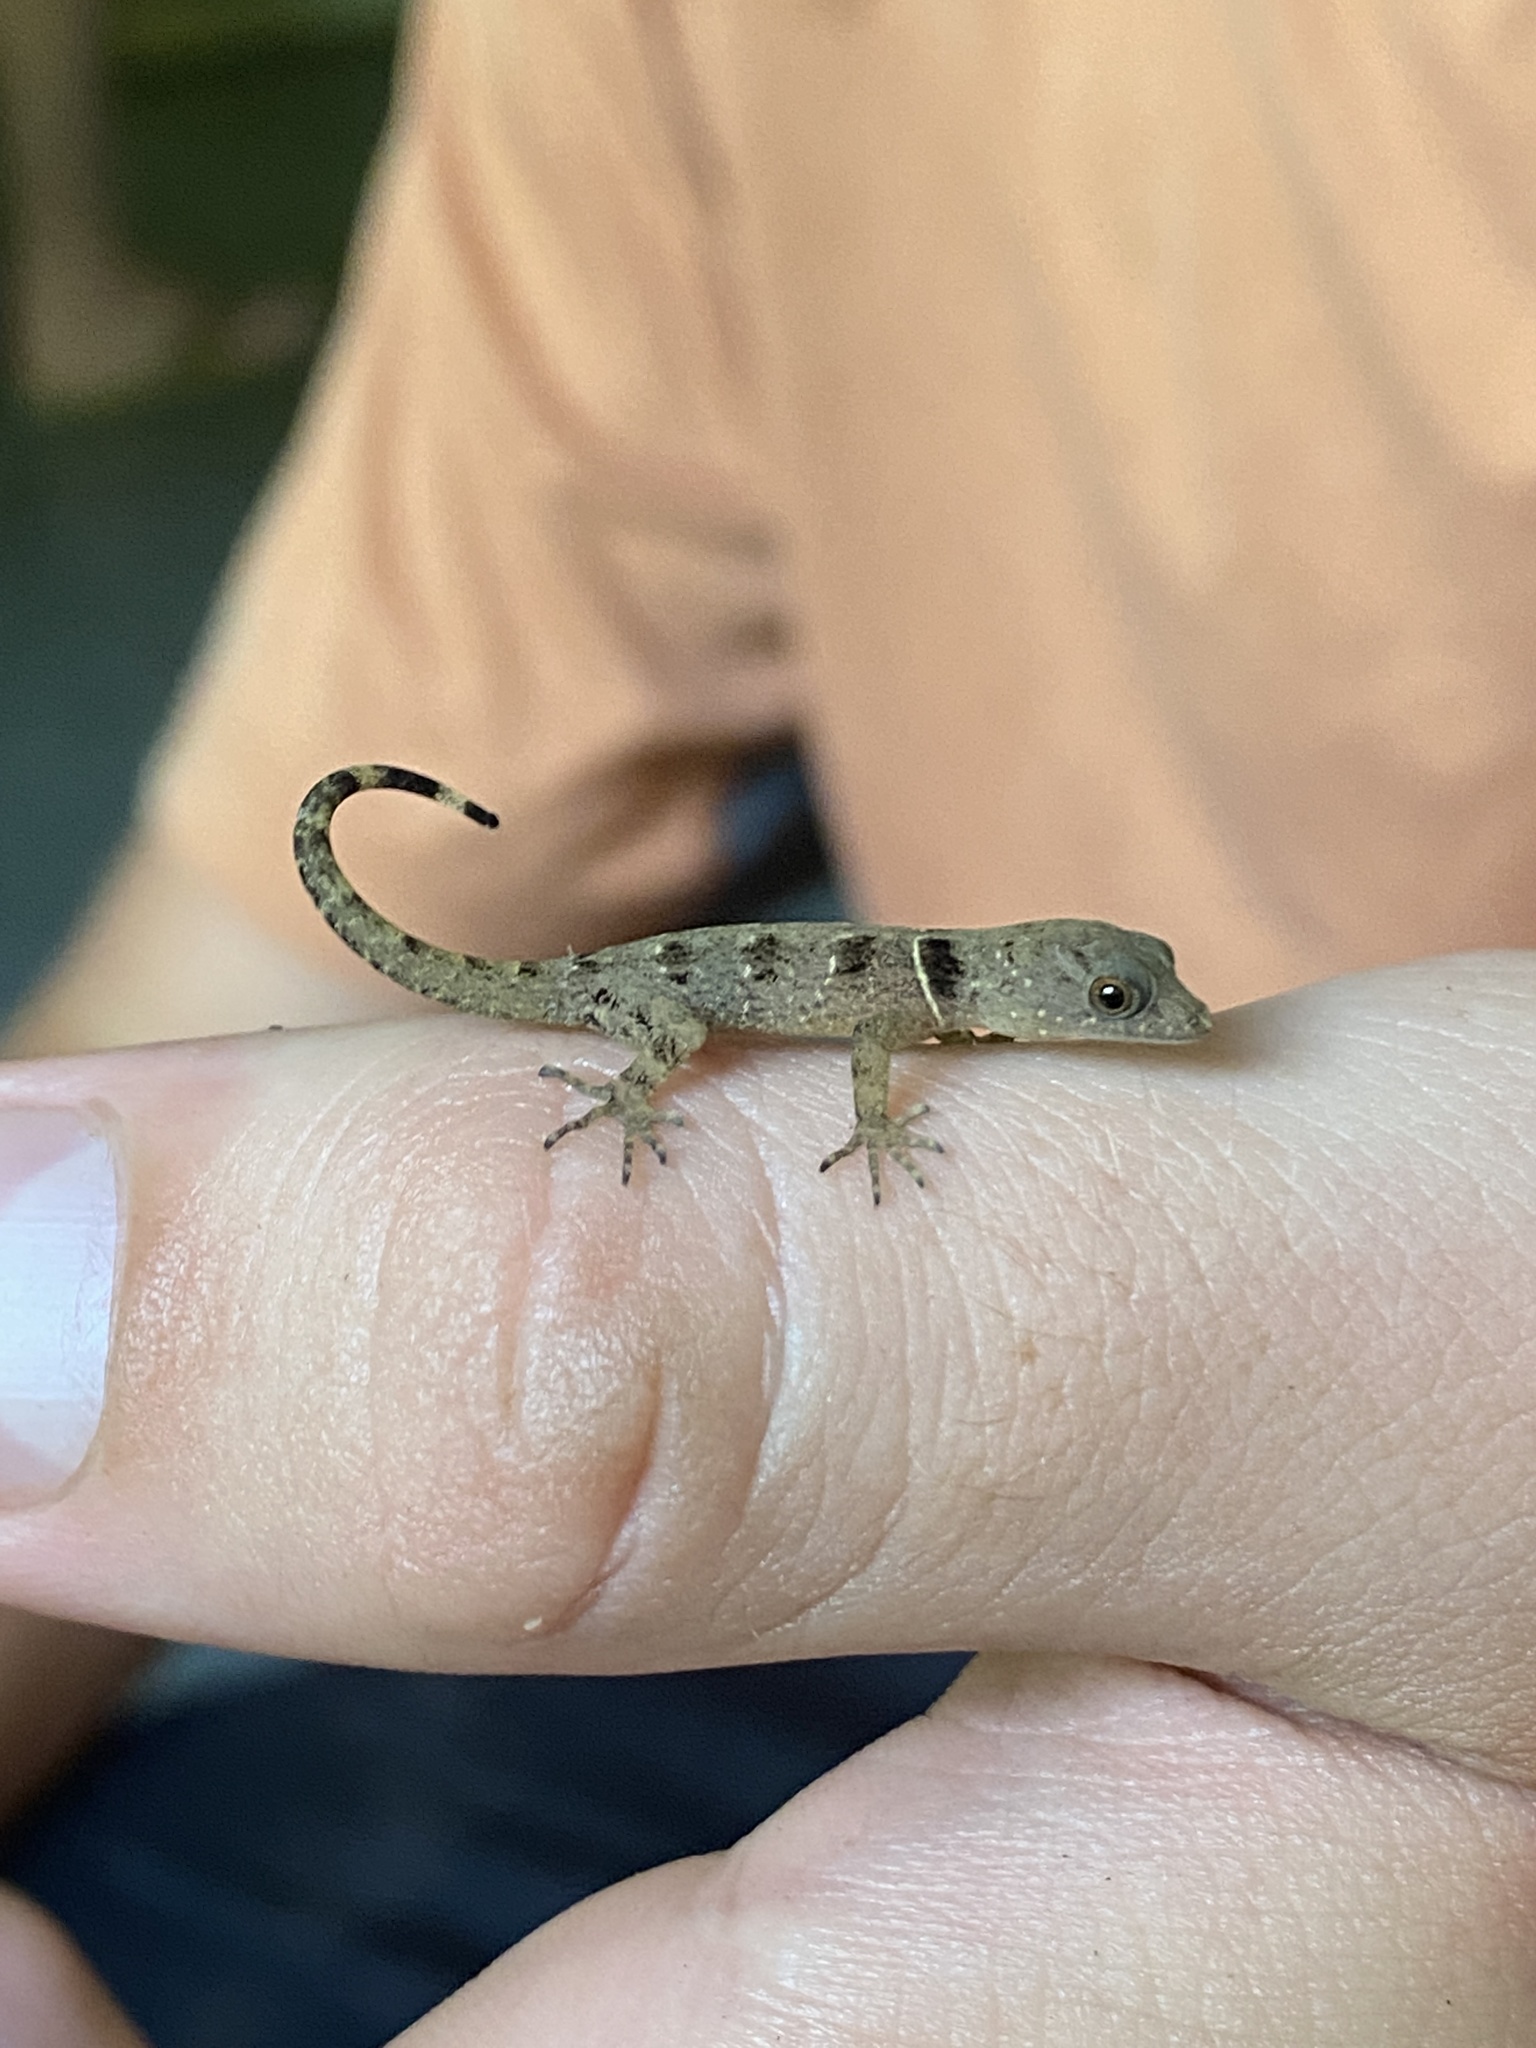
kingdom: Animalia
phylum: Chordata
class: Squamata
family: Sphaerodactylidae
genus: Gonatodes
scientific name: Gonatodes ceciliae
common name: Brilliant south american gecko
